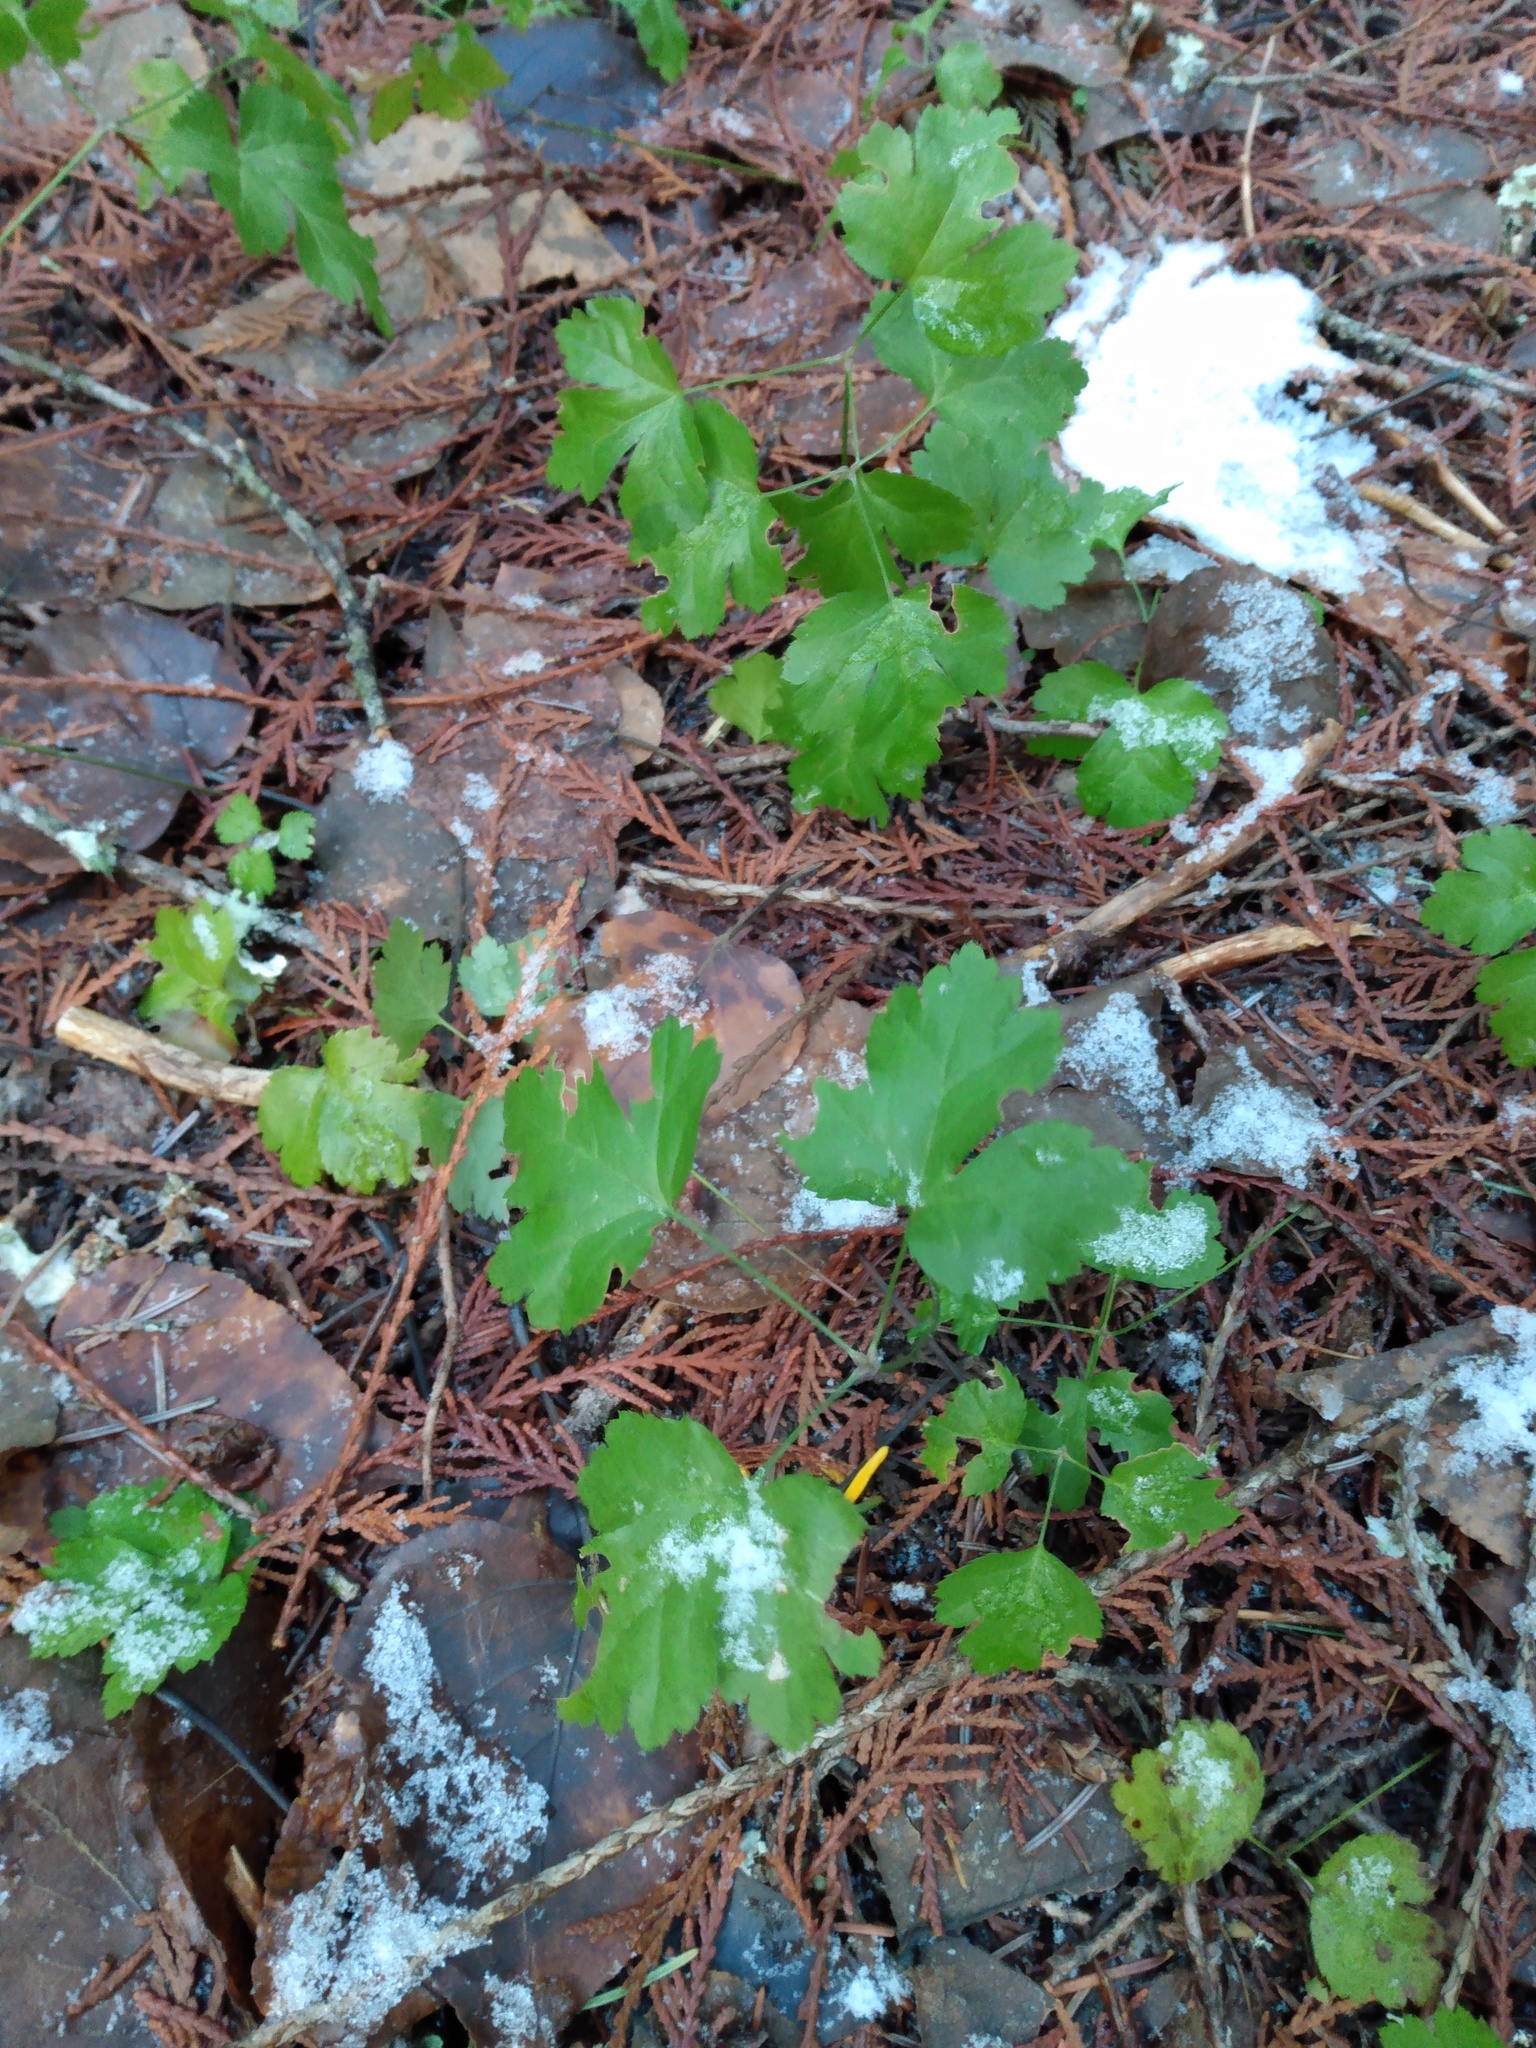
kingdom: Plantae
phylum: Tracheophyta
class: Magnoliopsida
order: Ranunculales
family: Ranunculaceae
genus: Coptis
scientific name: Coptis occidentalis
